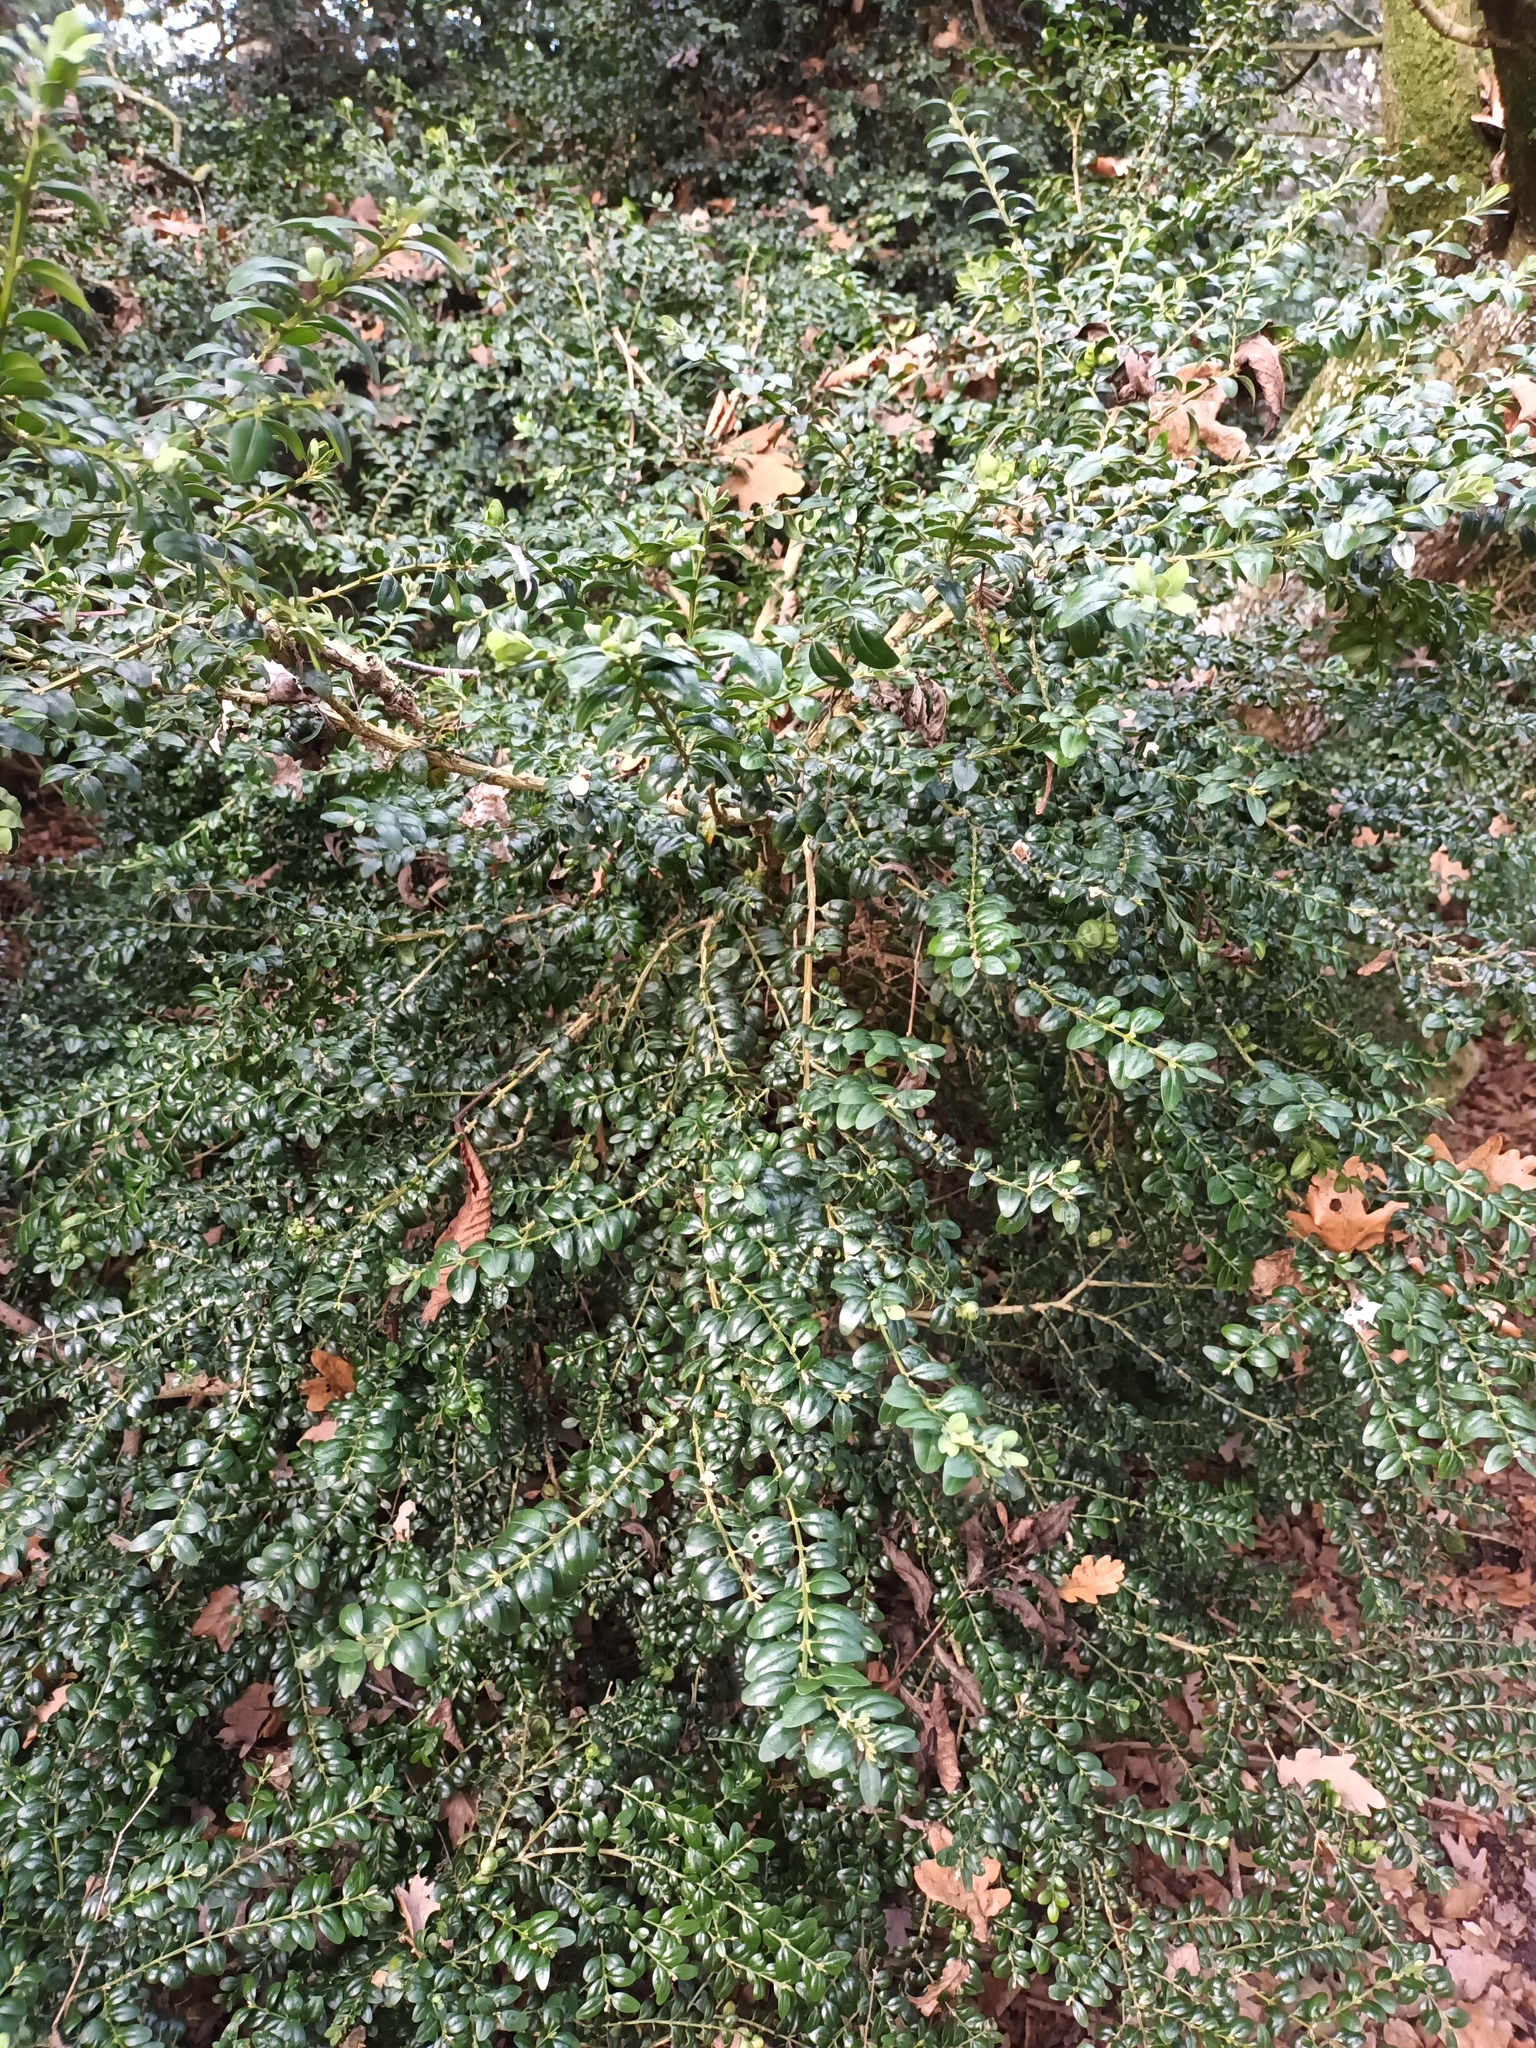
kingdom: Plantae
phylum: Tracheophyta
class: Magnoliopsida
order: Buxales
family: Buxaceae
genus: Buxus
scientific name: Buxus sempervirens
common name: Box
